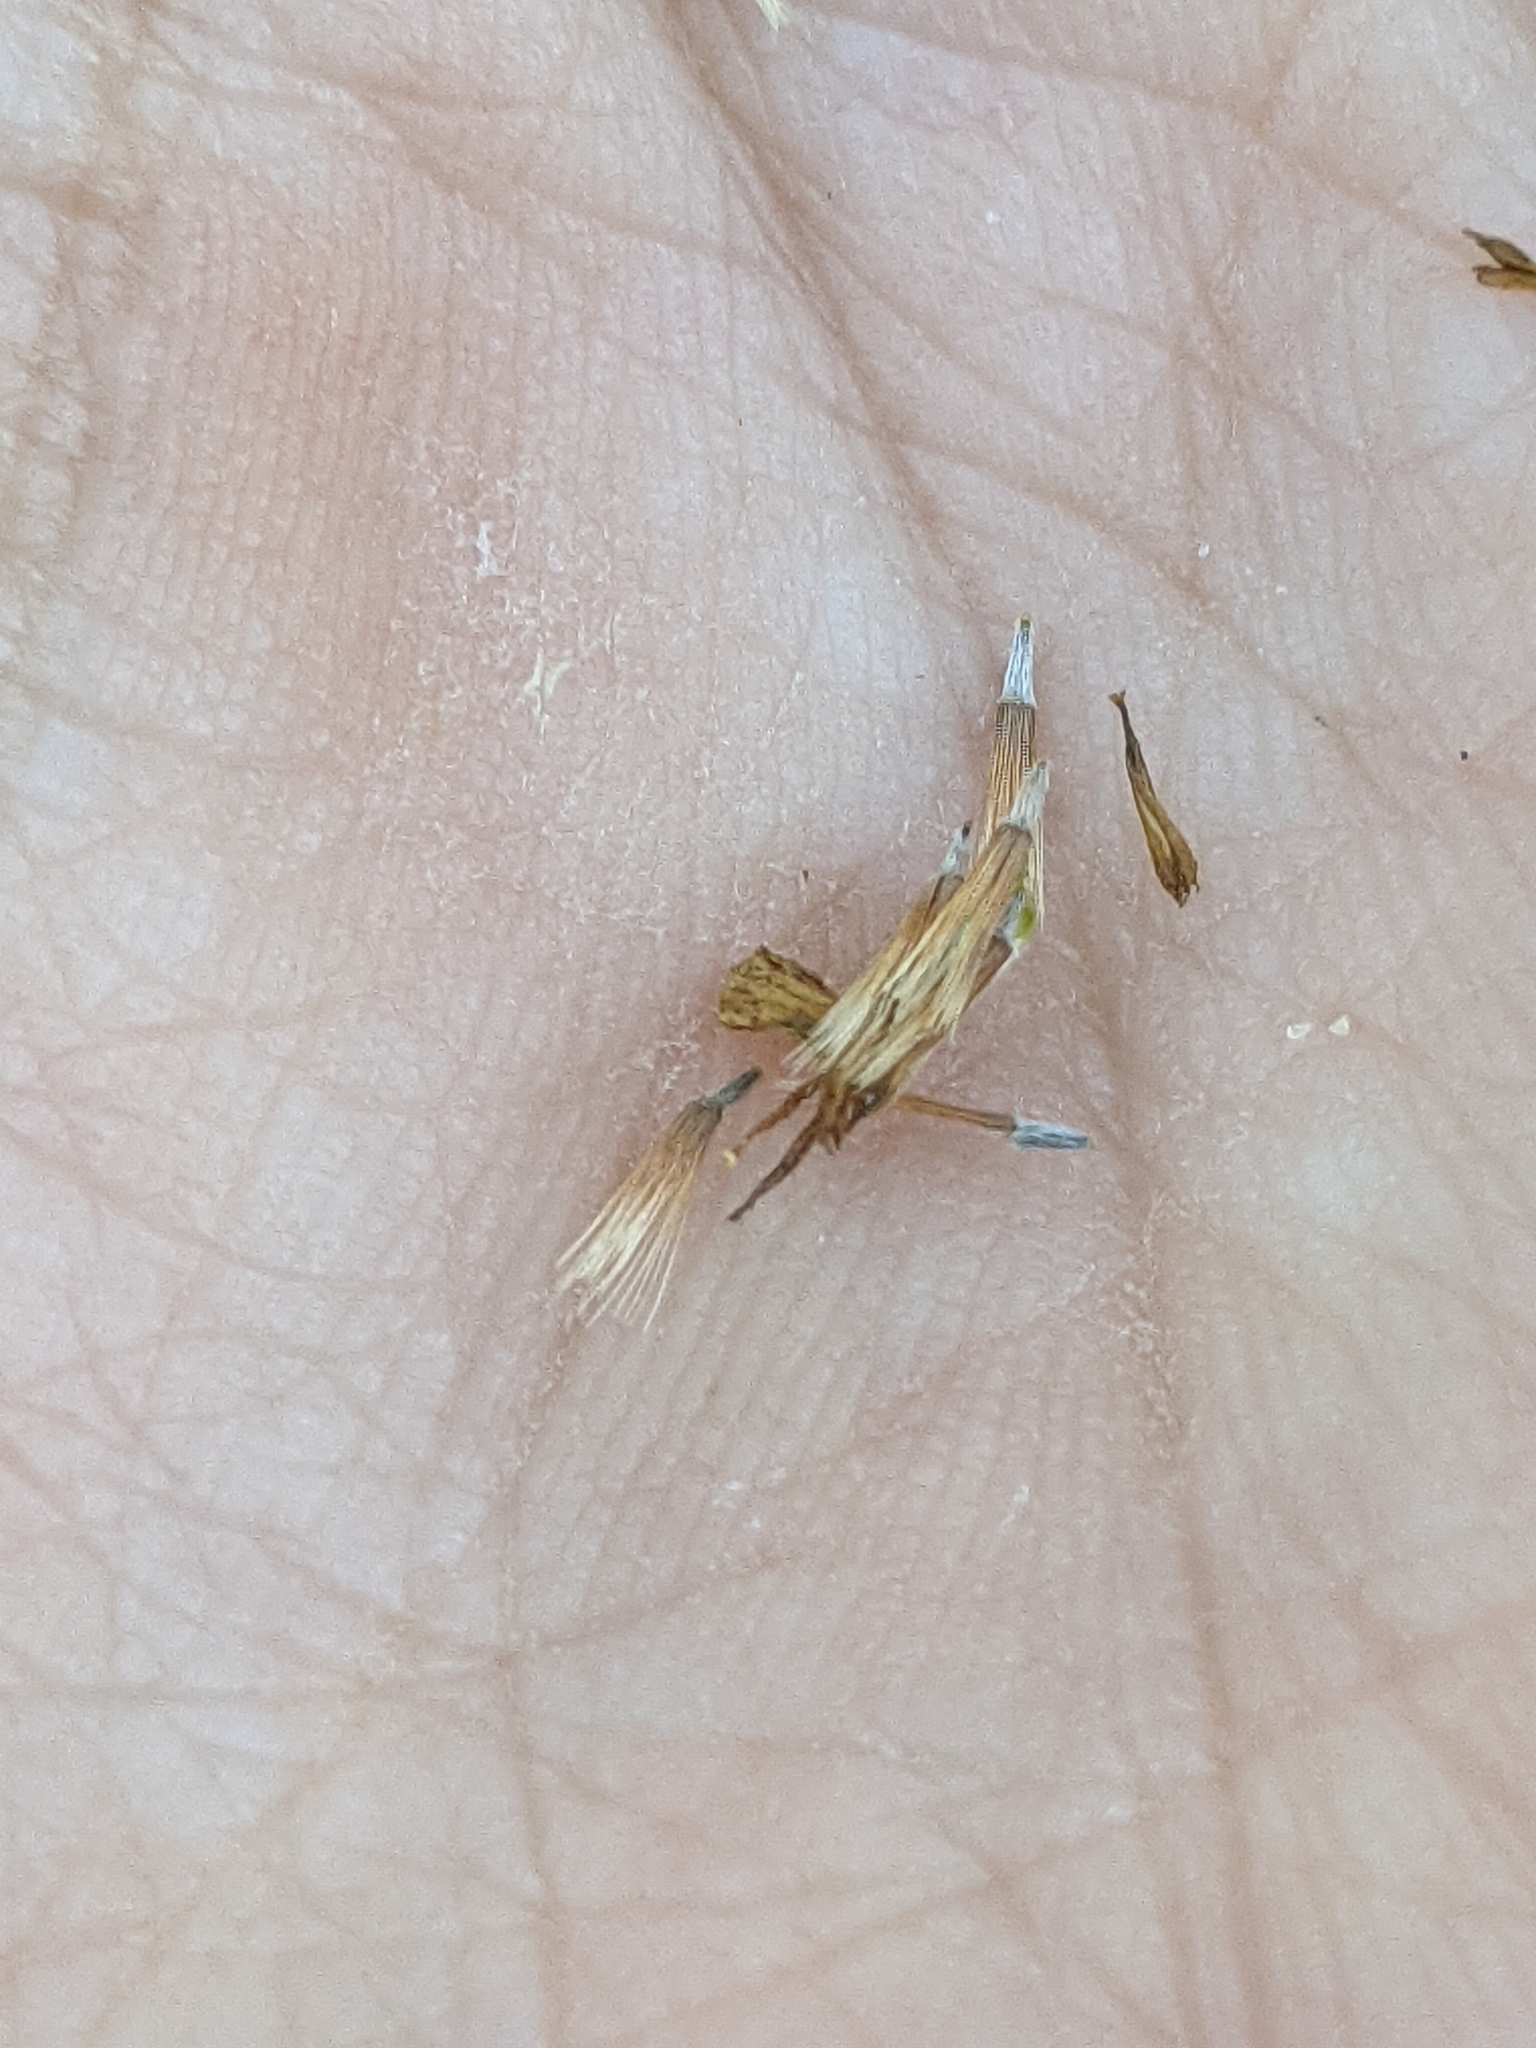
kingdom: Plantae
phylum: Tracheophyta
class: Magnoliopsida
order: Asterales
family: Asteraceae
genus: Croptilon
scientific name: Croptilon divaricatum
